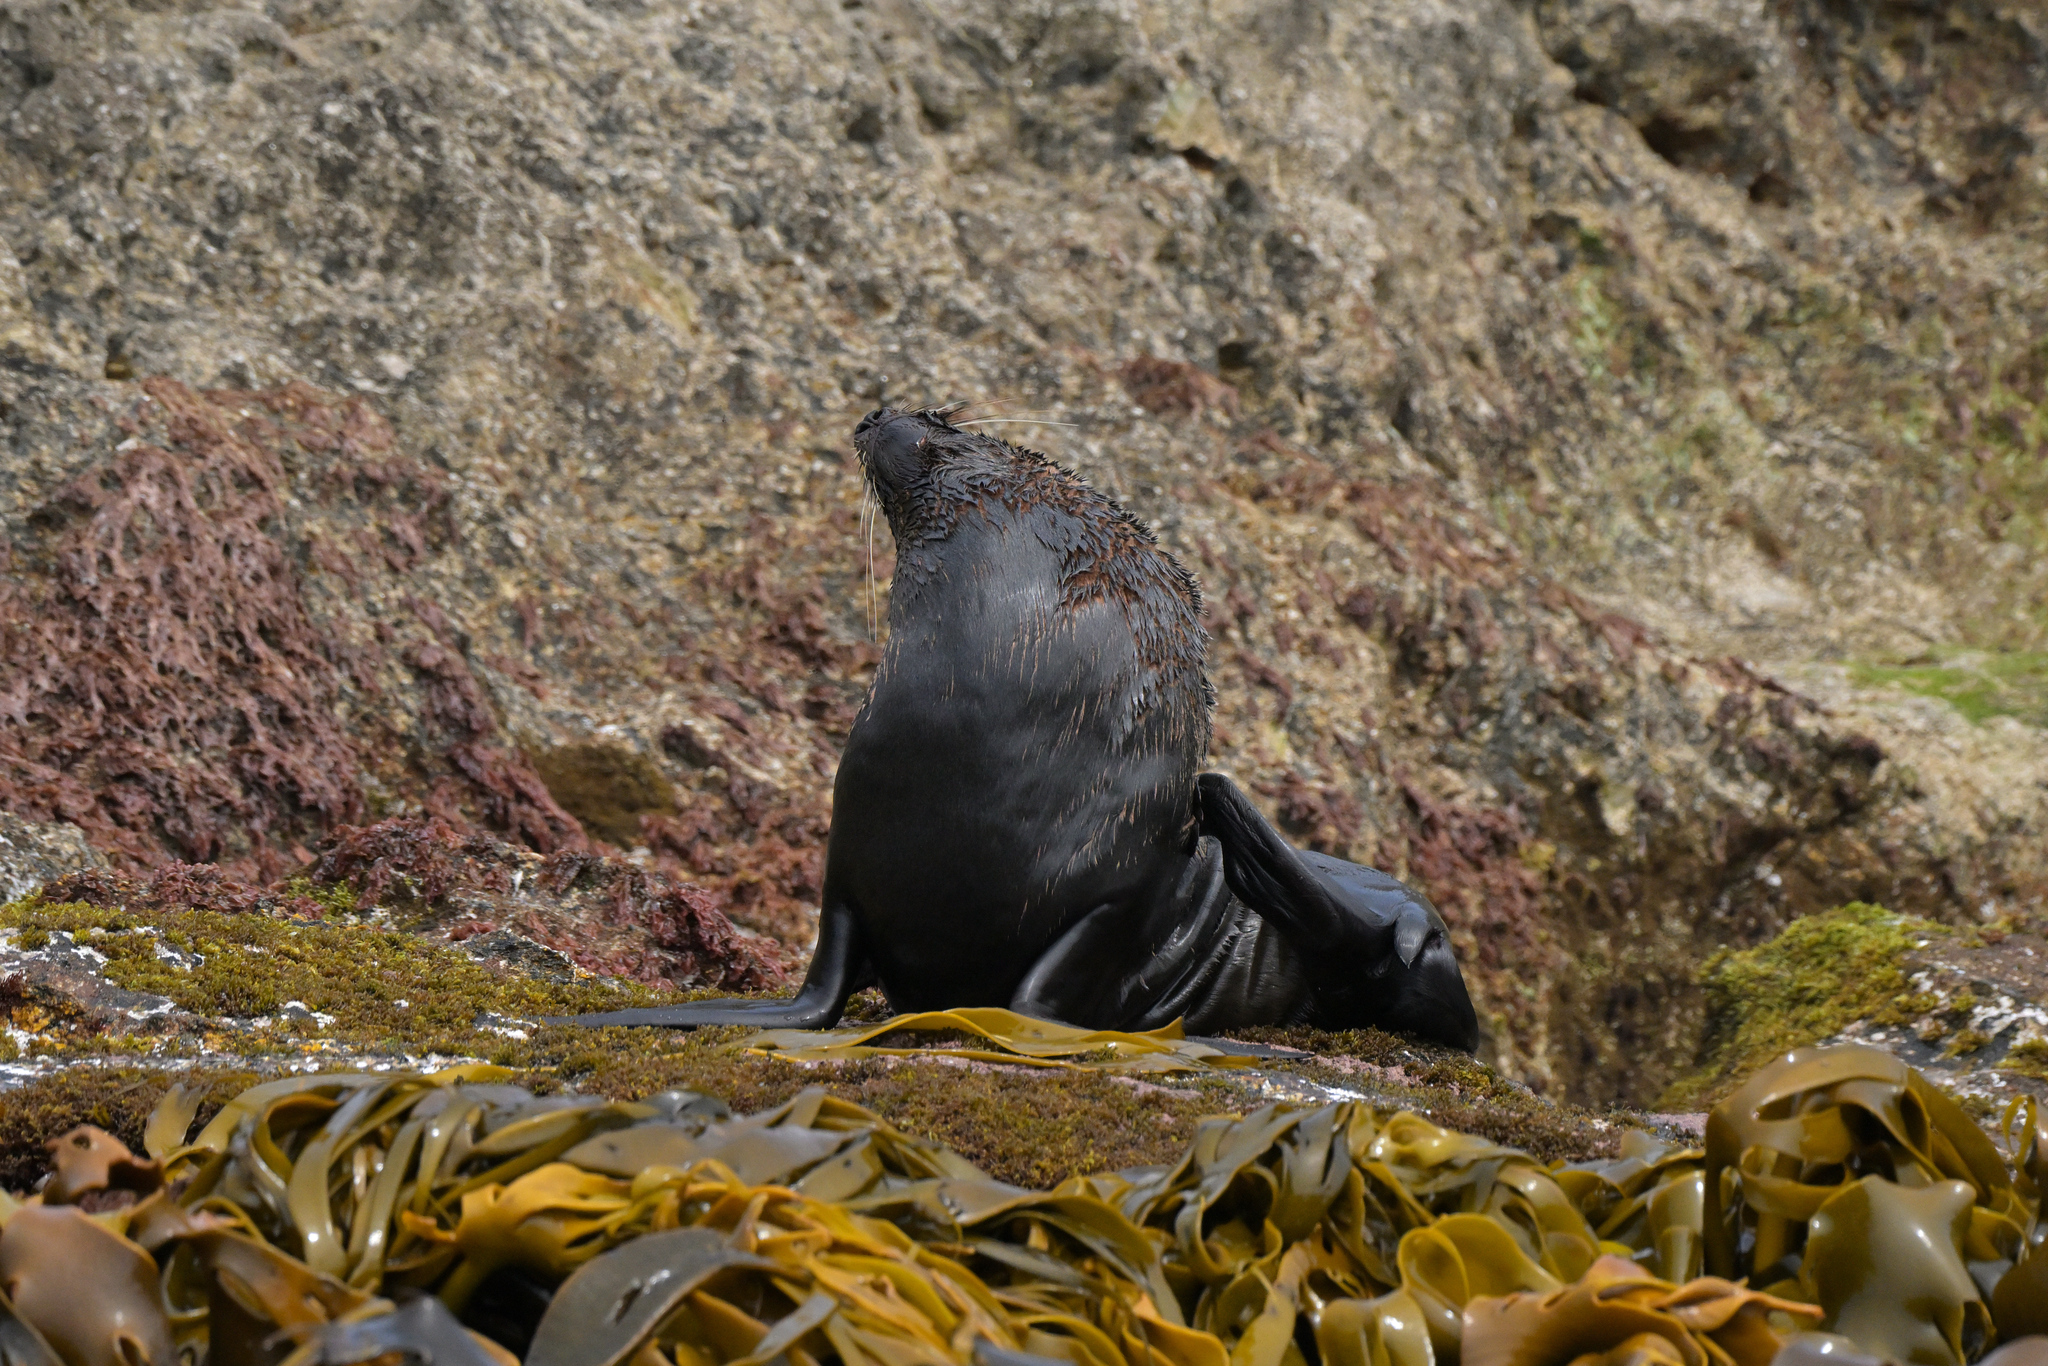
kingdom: Animalia
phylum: Chordata
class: Mammalia
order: Carnivora
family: Otariidae
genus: Arctocephalus
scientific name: Arctocephalus forsteri
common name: New zealand fur seal
